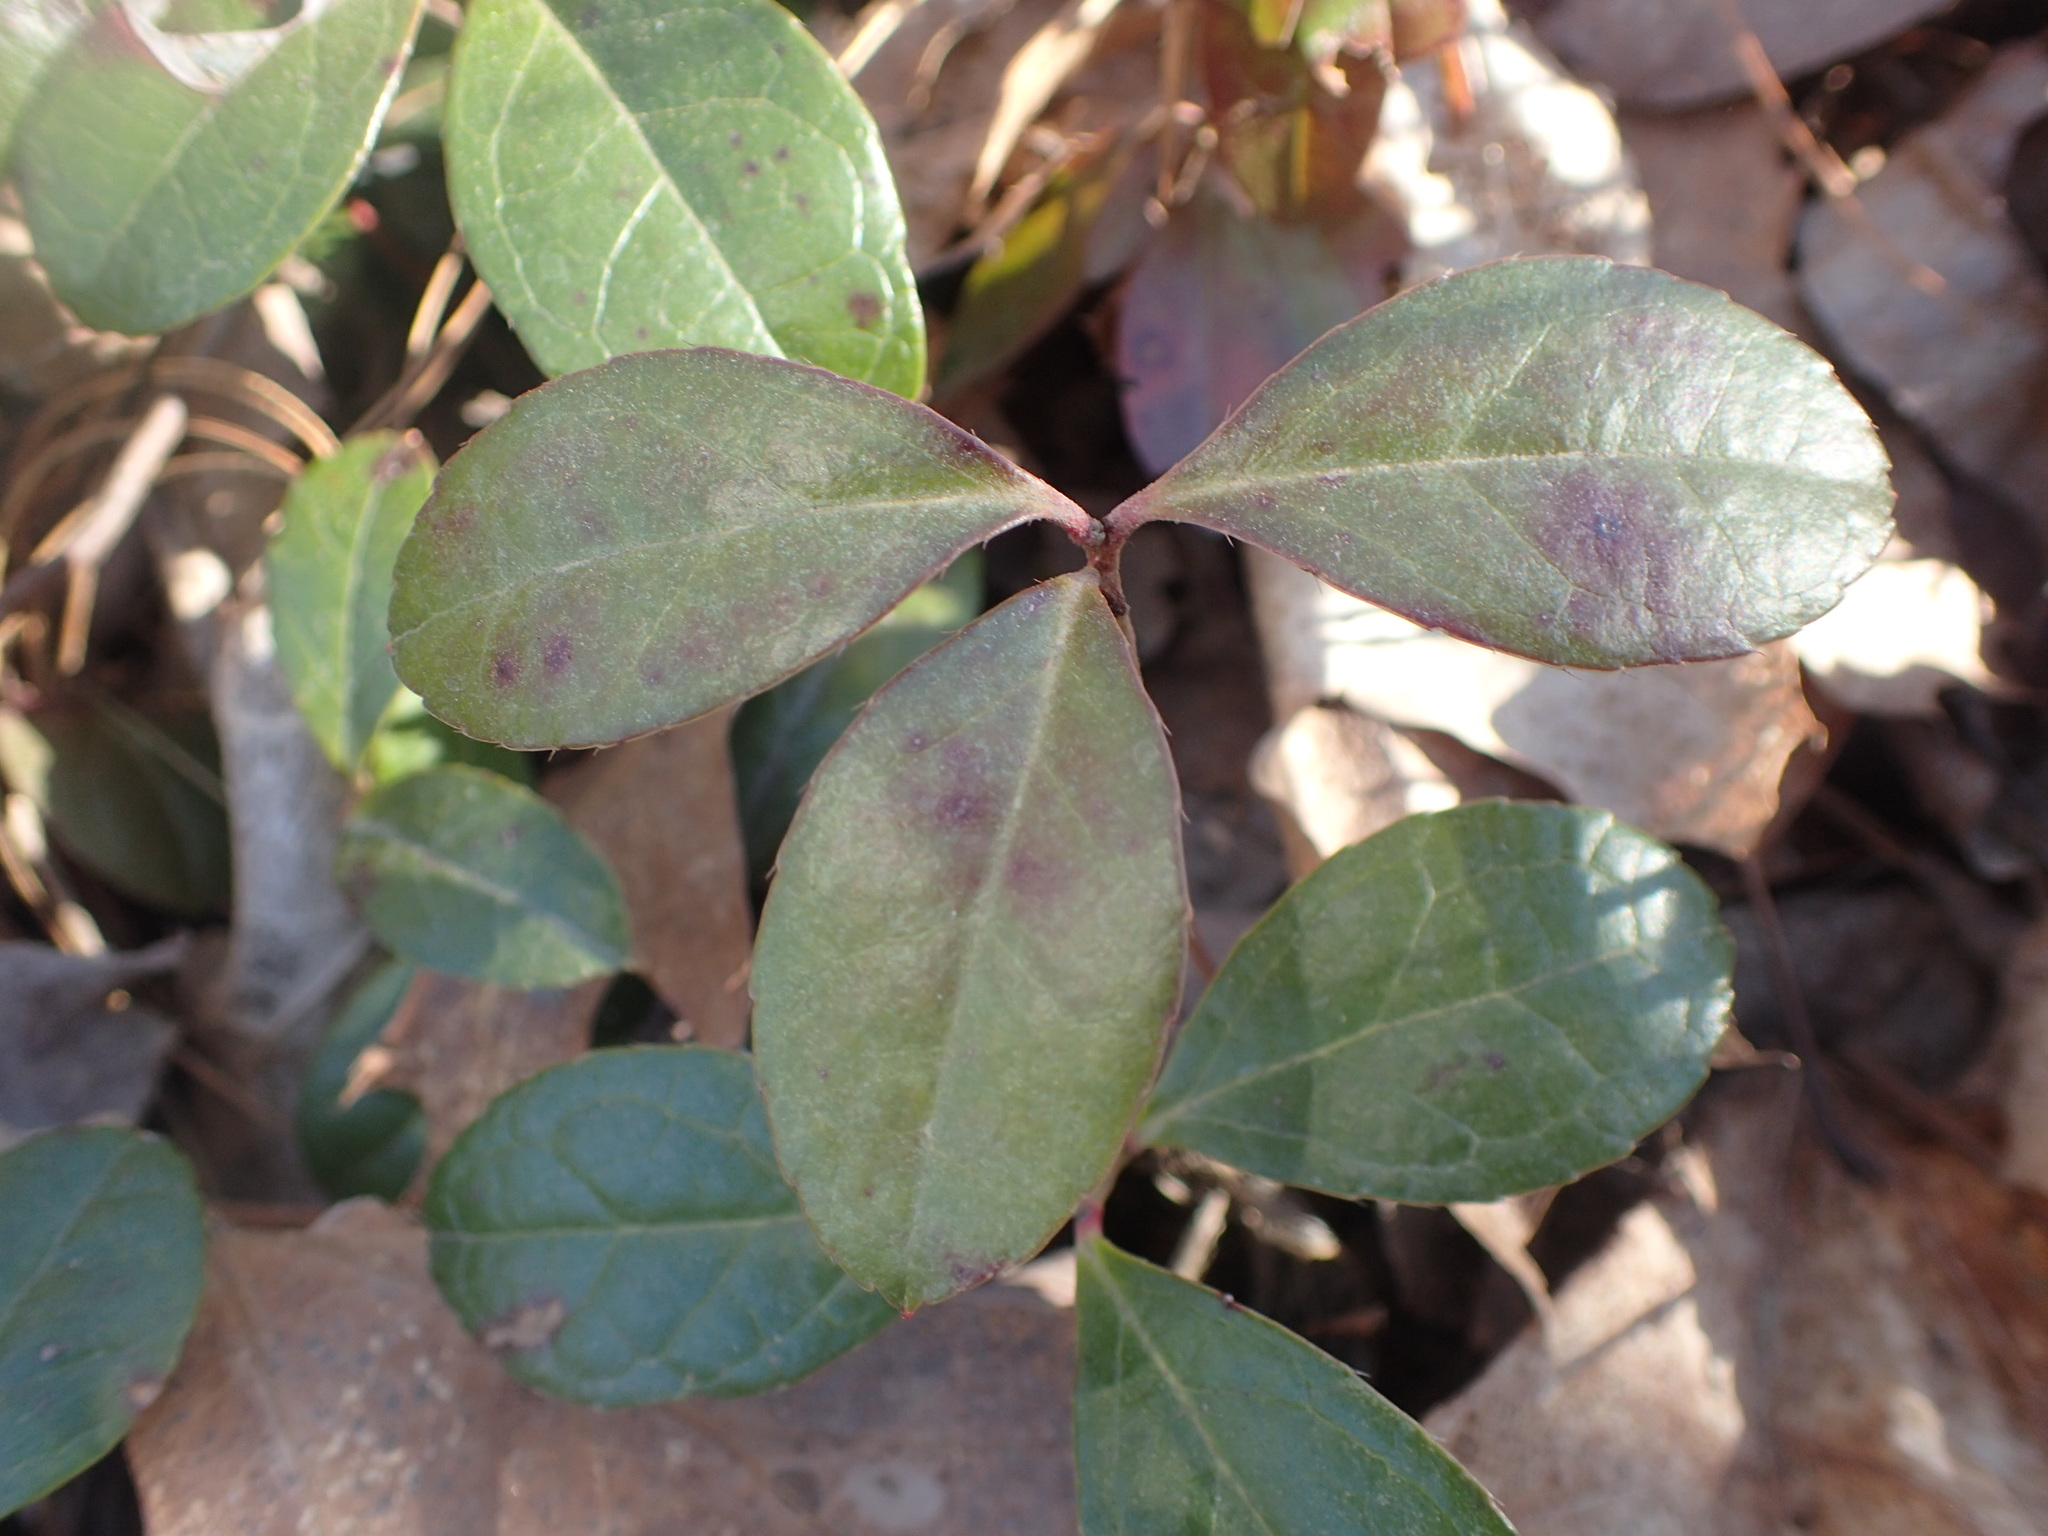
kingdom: Plantae
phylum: Tracheophyta
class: Magnoliopsida
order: Ericales
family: Ericaceae
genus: Gaultheria
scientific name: Gaultheria procumbens
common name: Checkerberry
